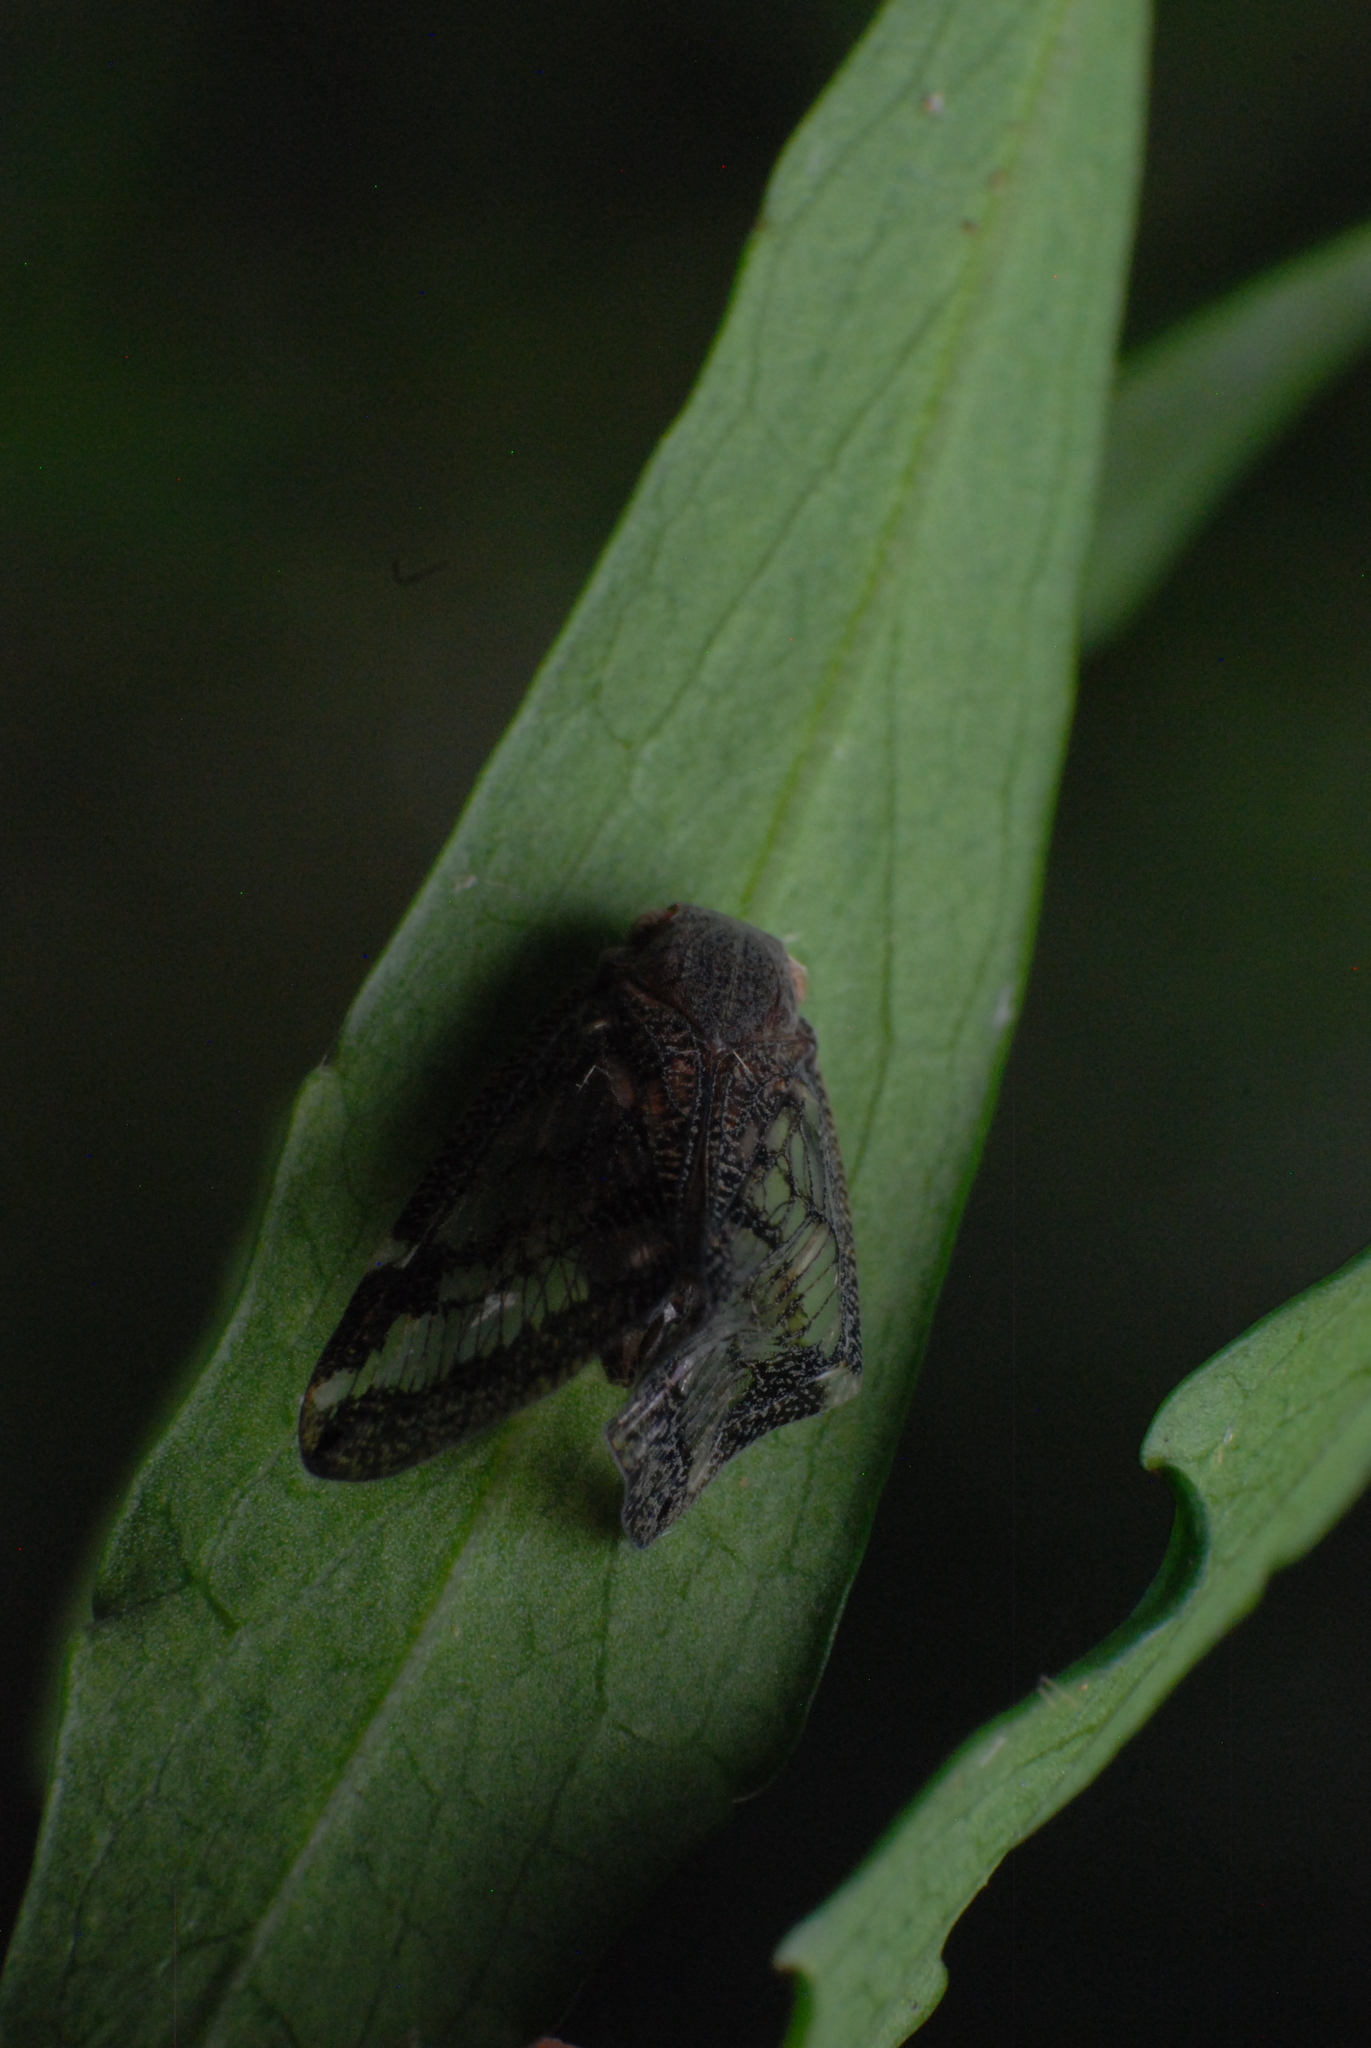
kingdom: Animalia
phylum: Arthropoda
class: Insecta
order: Hemiptera
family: Ricaniidae
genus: Scolypopa
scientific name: Scolypopa australis
